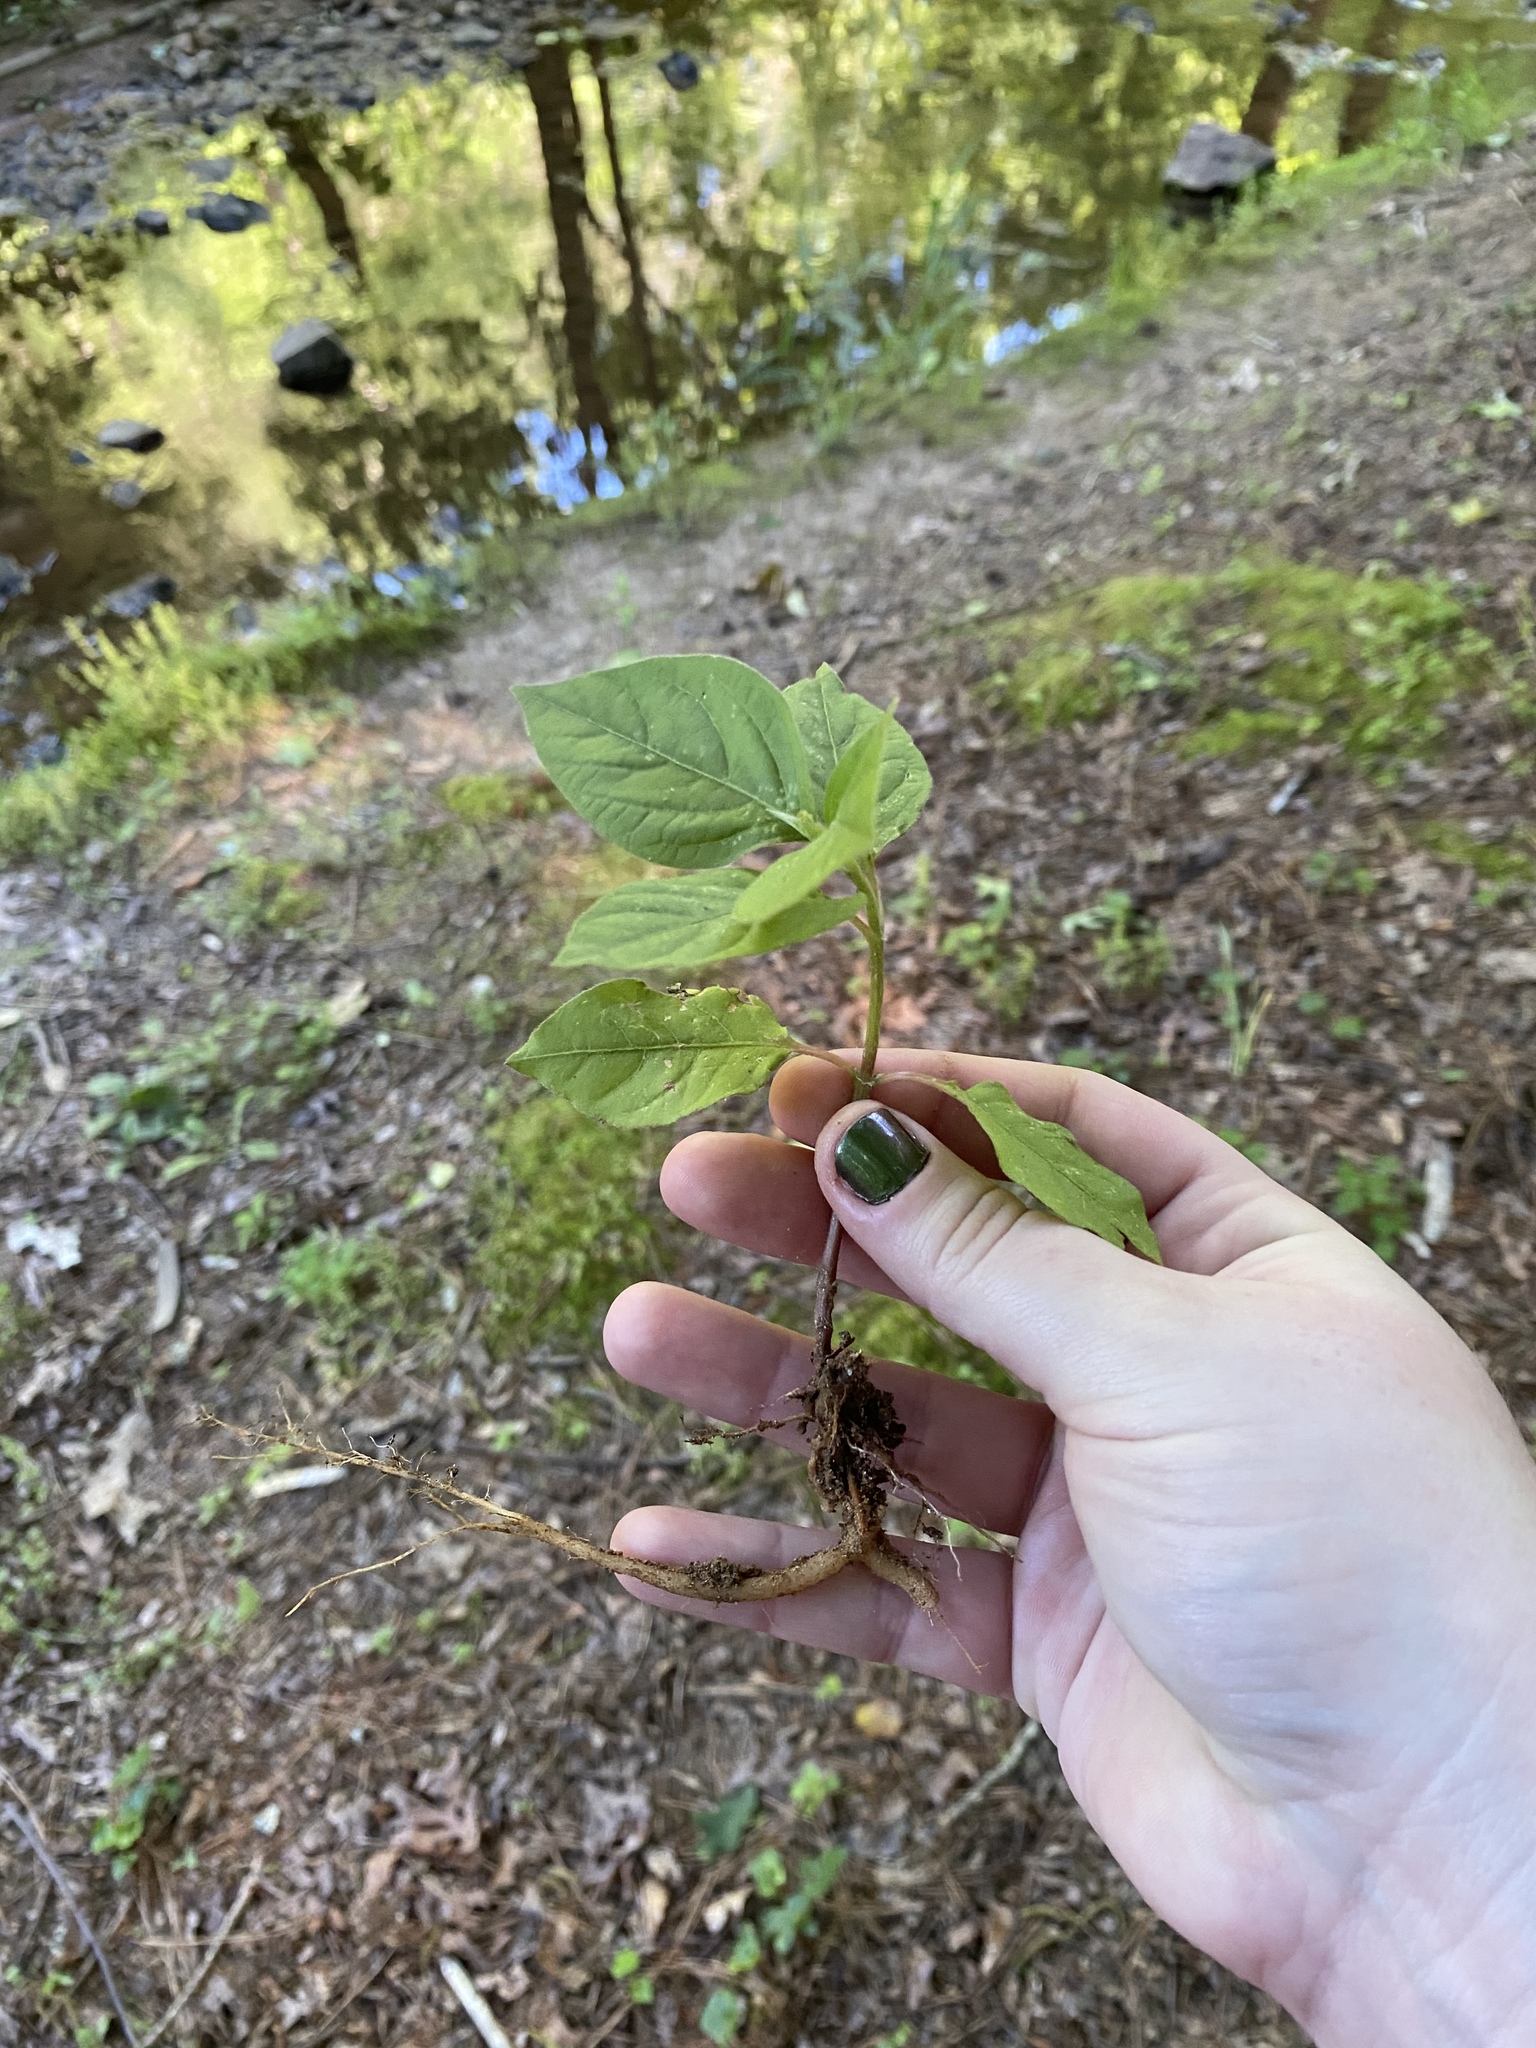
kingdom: Plantae
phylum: Tracheophyta
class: Magnoliopsida
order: Caryophyllales
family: Amaranthaceae
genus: Achyranthes
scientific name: Achyranthes bidentata
